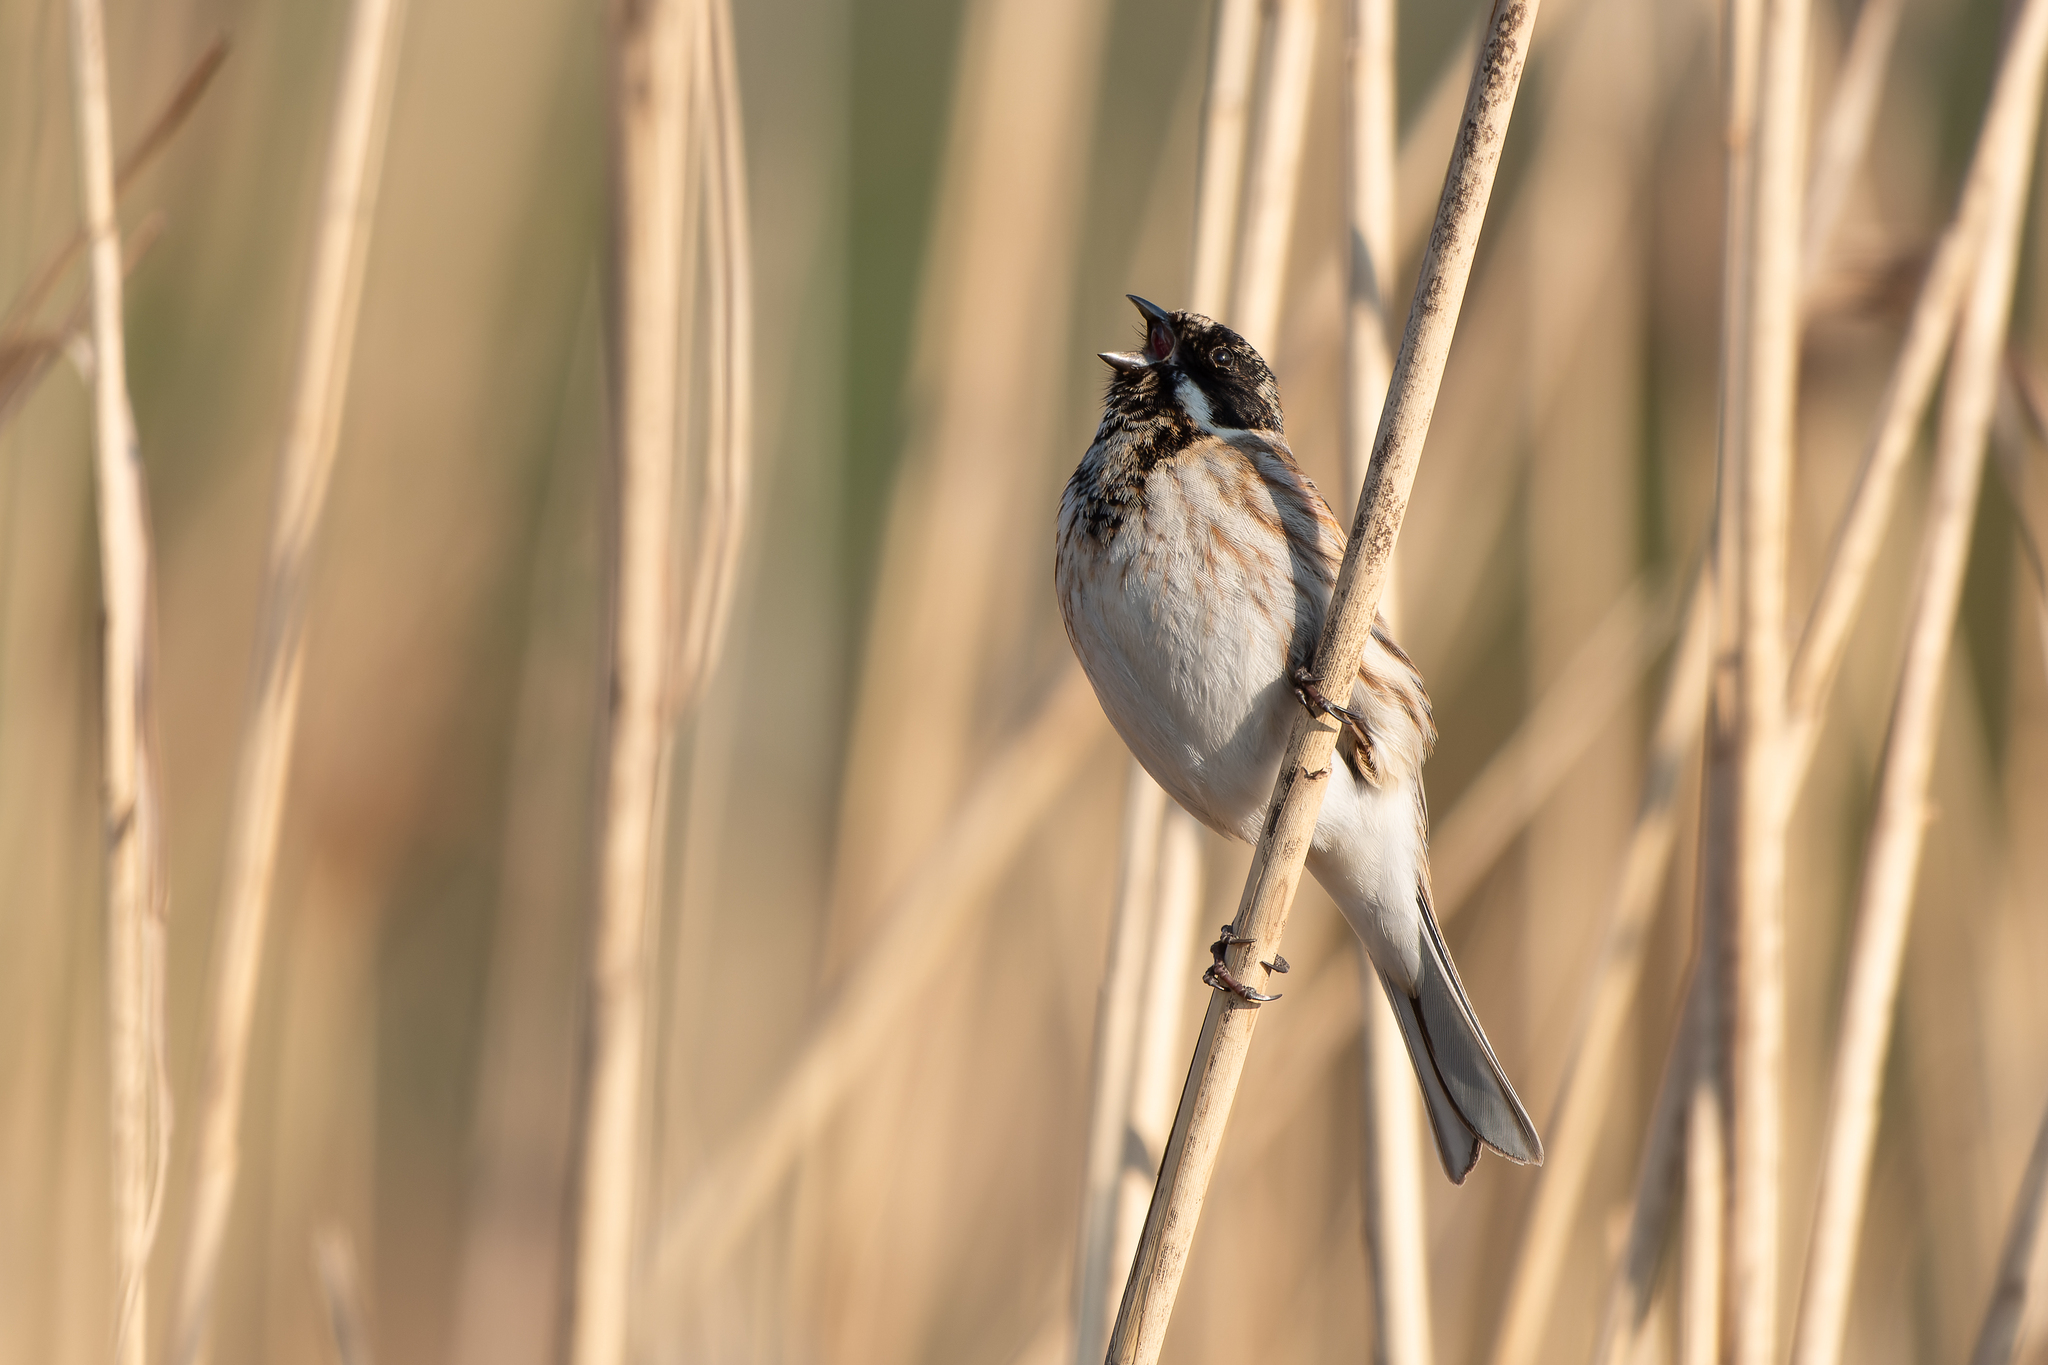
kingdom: Animalia
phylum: Chordata
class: Aves
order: Passeriformes
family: Emberizidae
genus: Emberiza
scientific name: Emberiza schoeniclus
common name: Reed bunting
